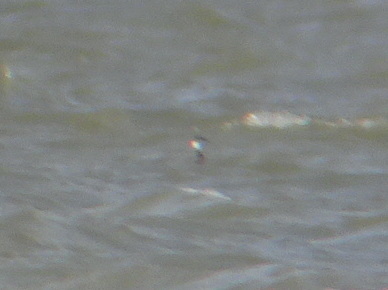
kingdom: Animalia
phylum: Chordata
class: Aves
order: Podicipediformes
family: Podicipedidae
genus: Podiceps
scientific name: Podiceps auritus
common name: Horned grebe
